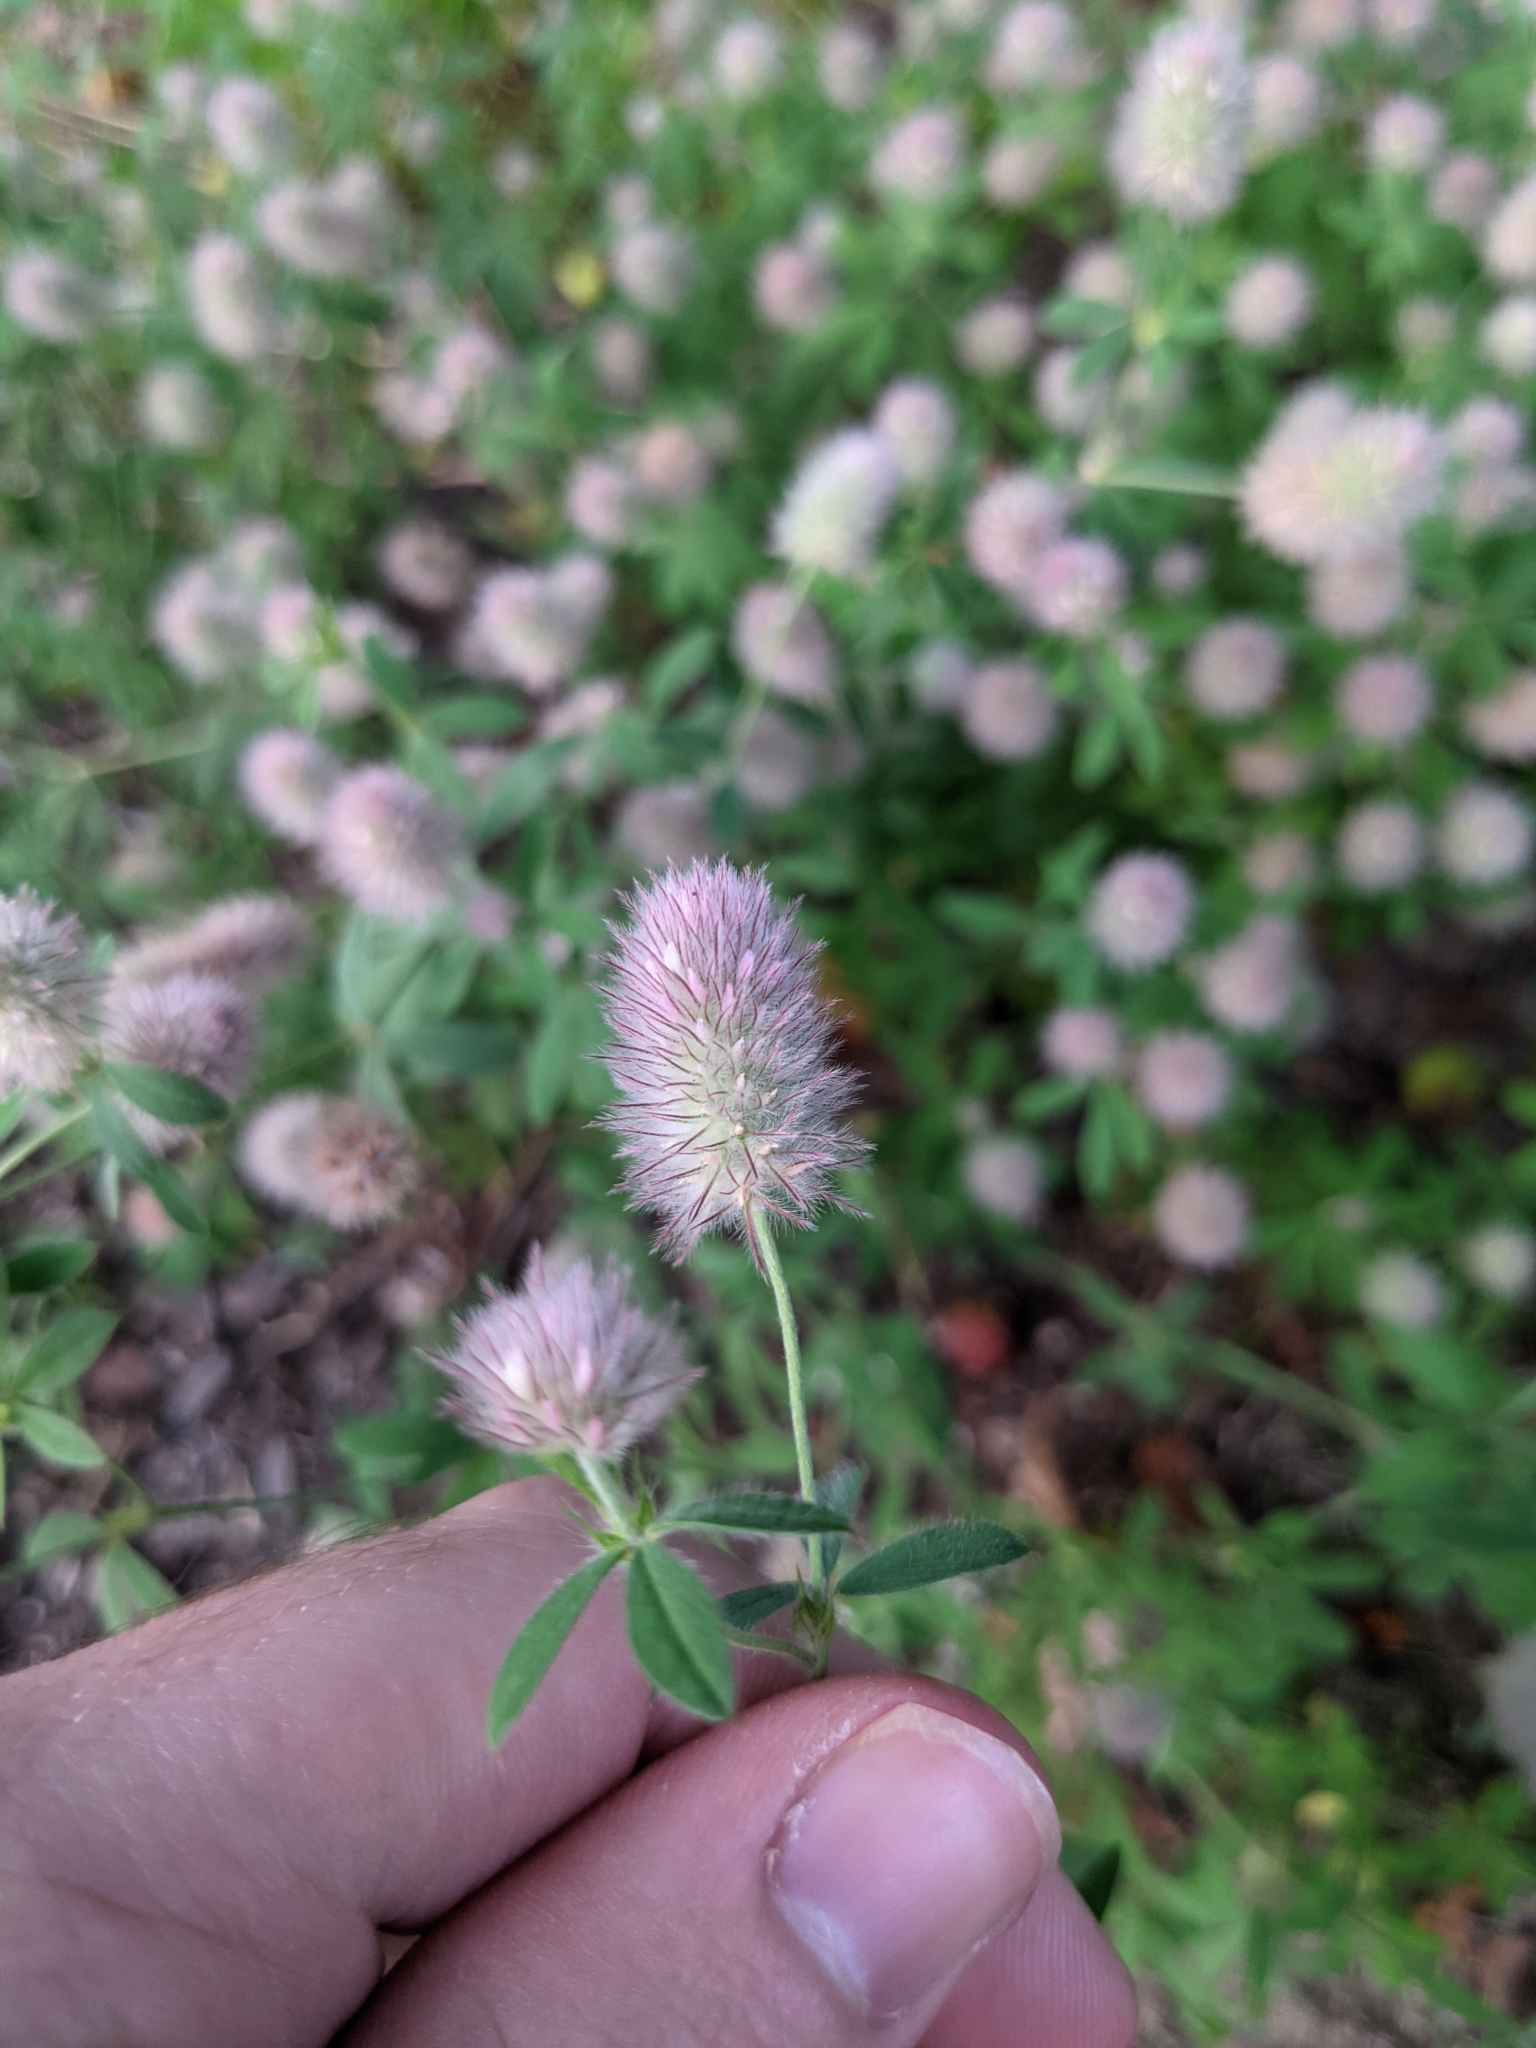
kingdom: Plantae
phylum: Tracheophyta
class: Magnoliopsida
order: Fabales
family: Fabaceae
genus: Trifolium
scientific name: Trifolium arvense
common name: Hare's-foot clover
